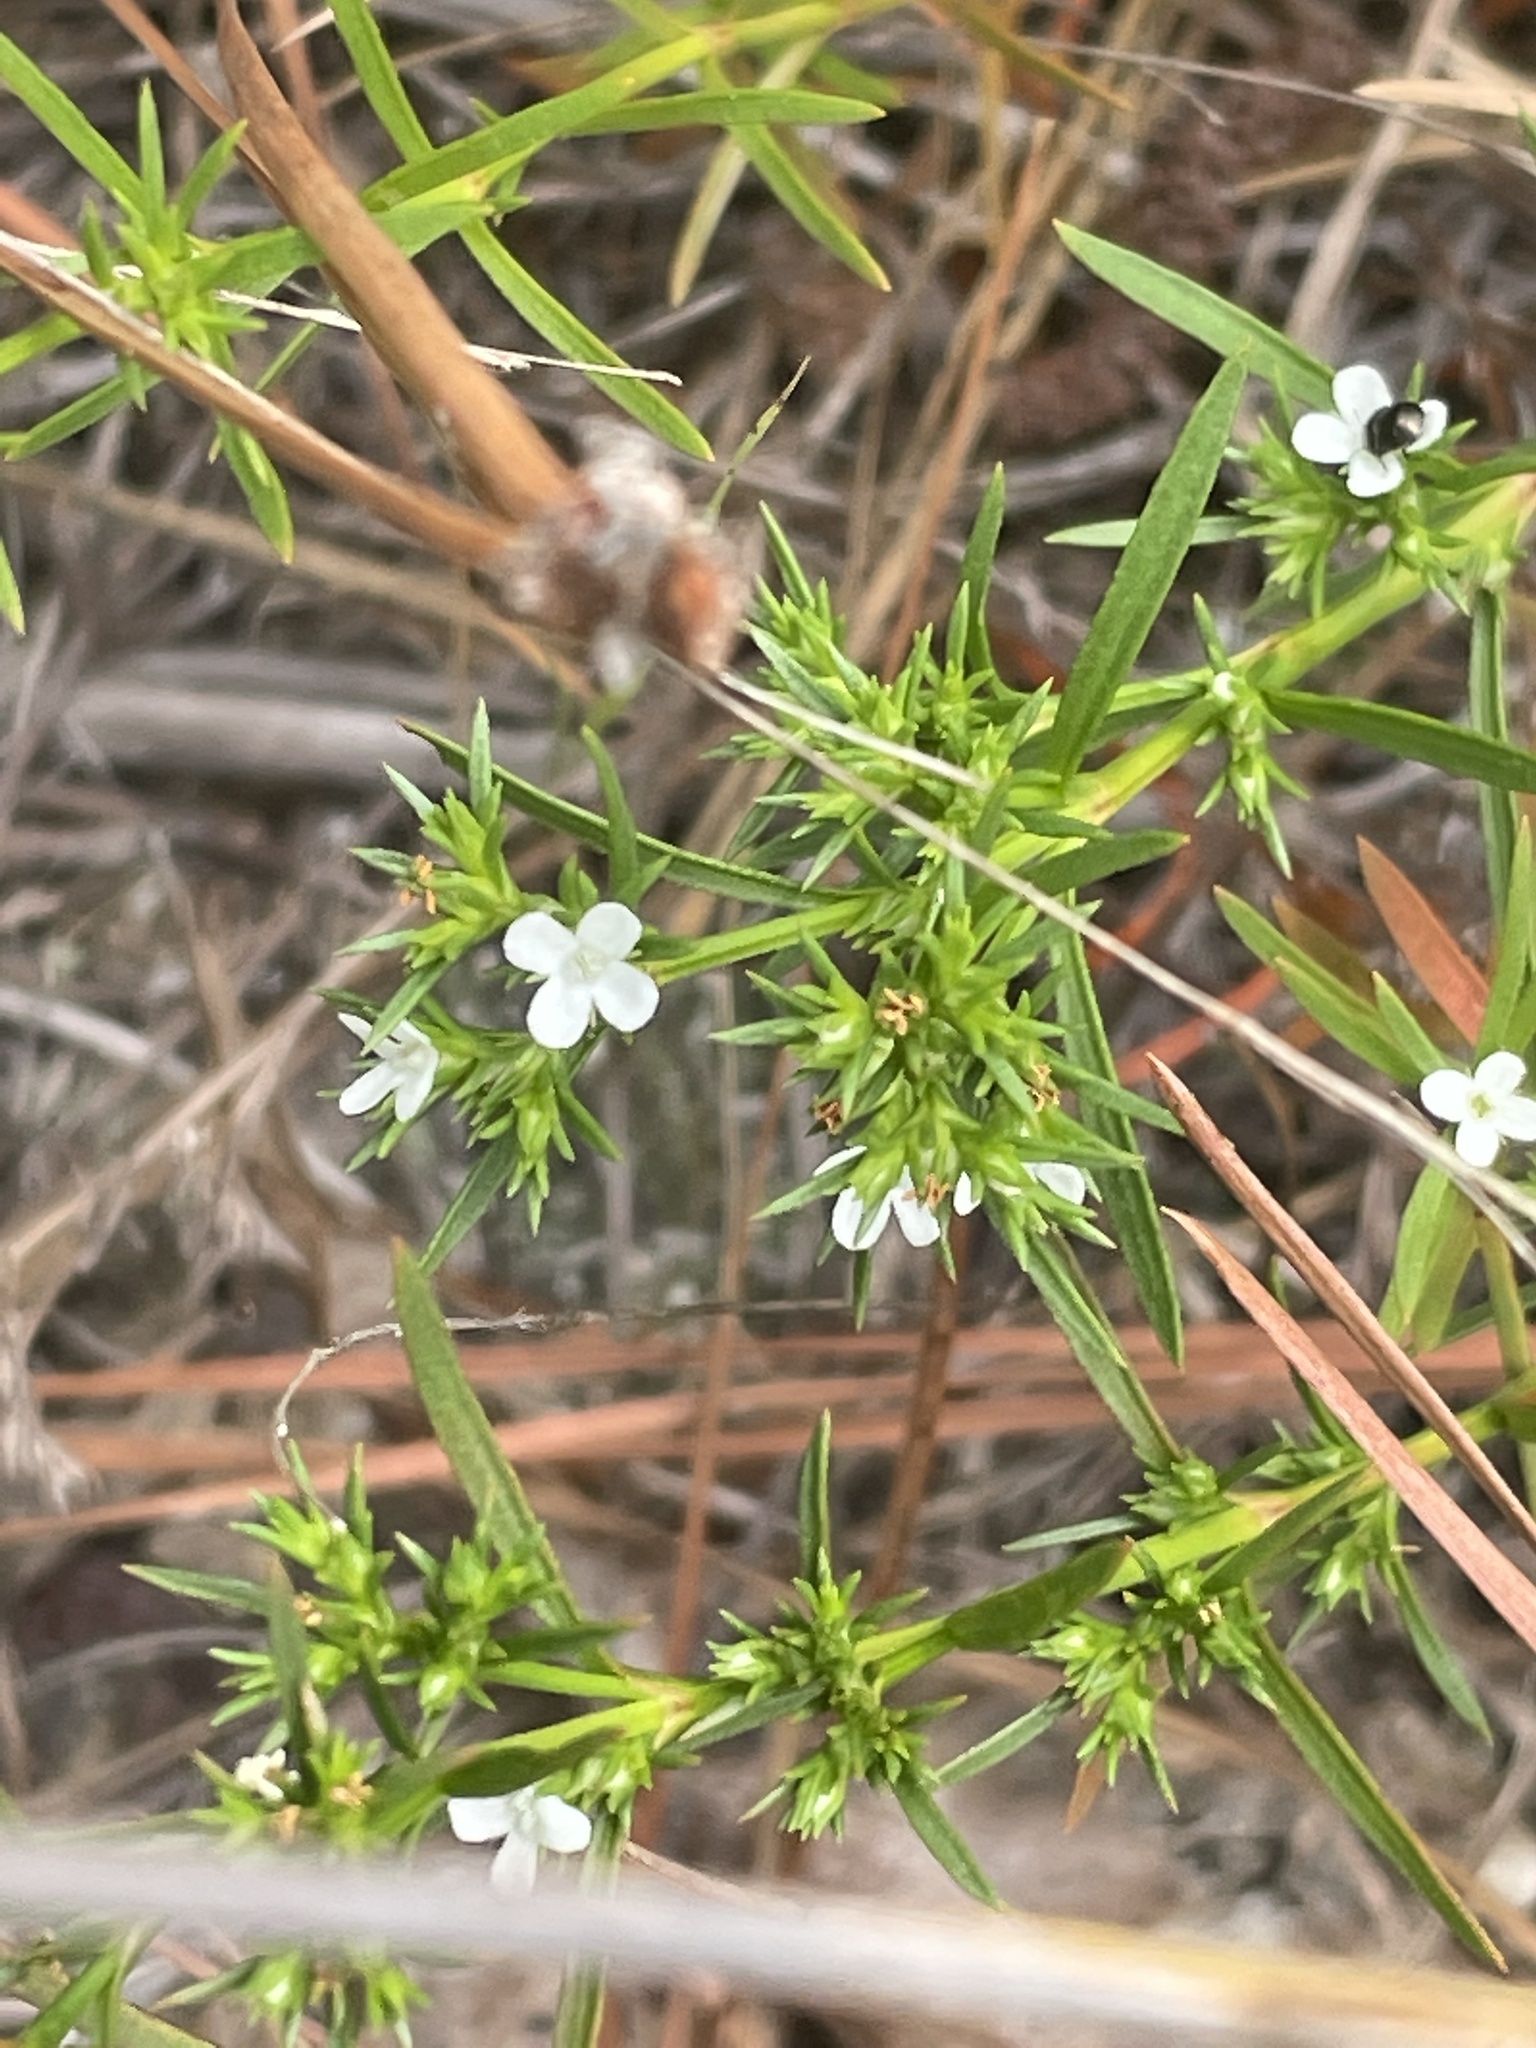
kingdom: Plantae
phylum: Tracheophyta
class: Magnoliopsida
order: Lamiales
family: Tetrachondraceae
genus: Polypremum
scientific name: Polypremum procumbens
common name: Juniper-leaf
